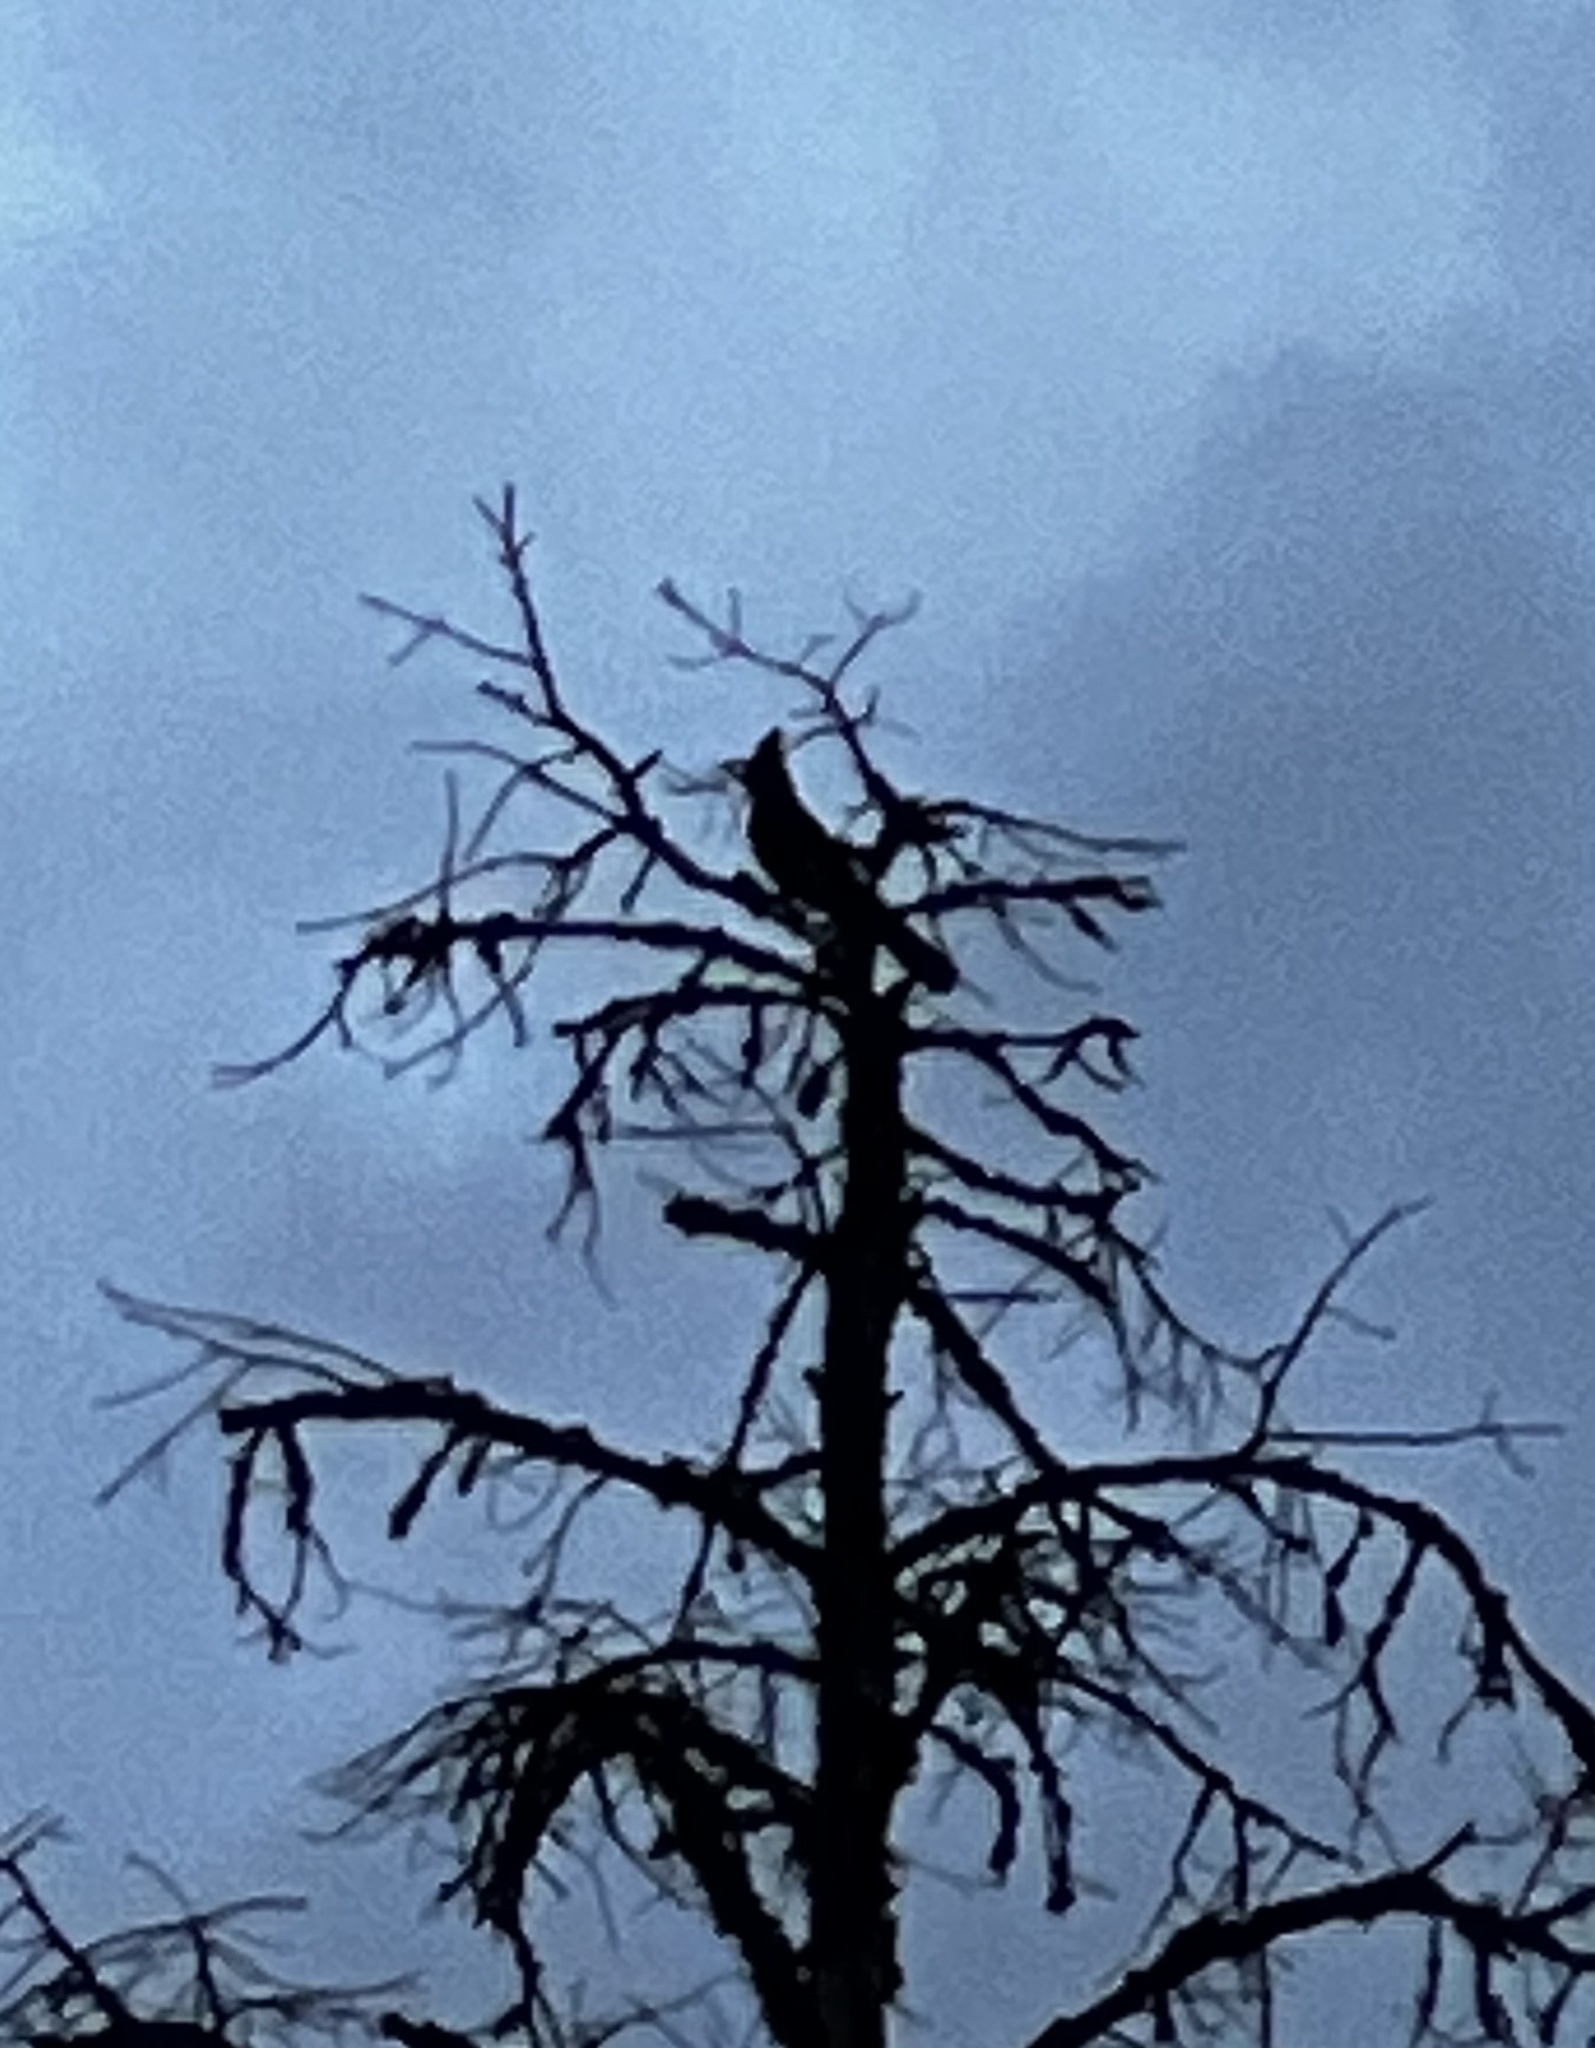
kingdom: Animalia
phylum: Chordata
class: Aves
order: Passeriformes
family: Corvidae
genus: Cyanocitta
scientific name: Cyanocitta stelleri
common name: Steller's jay
